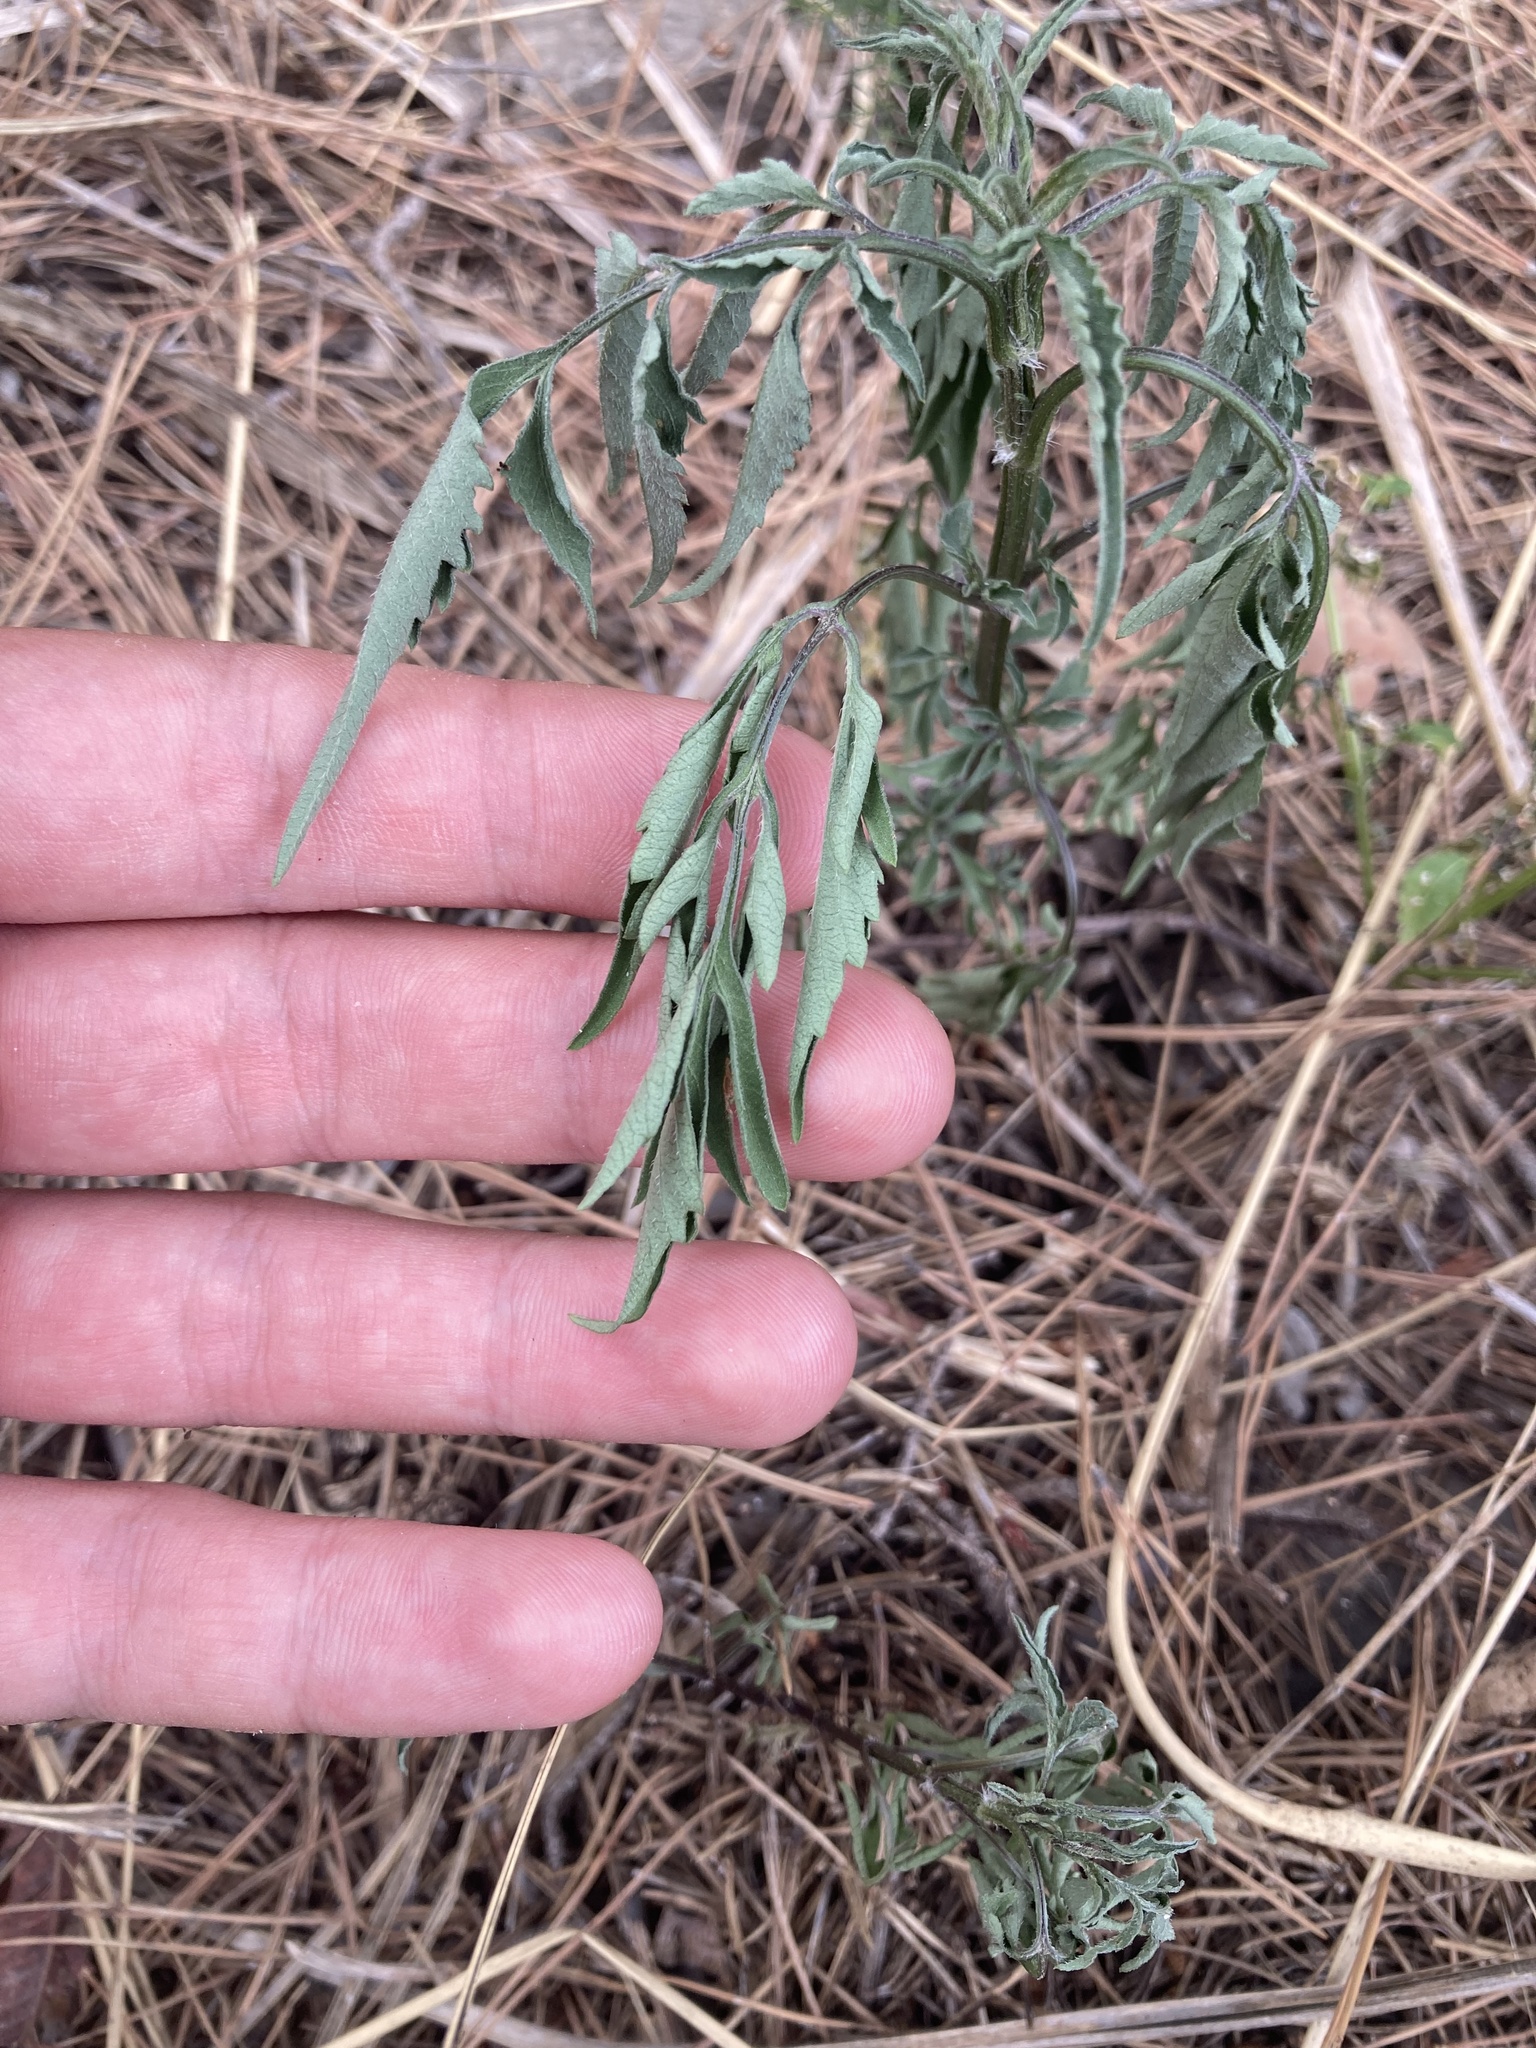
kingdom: Plantae
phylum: Tracheophyta
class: Magnoliopsida
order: Asterales
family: Asteraceae
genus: Bidens
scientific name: Bidens subalternans
